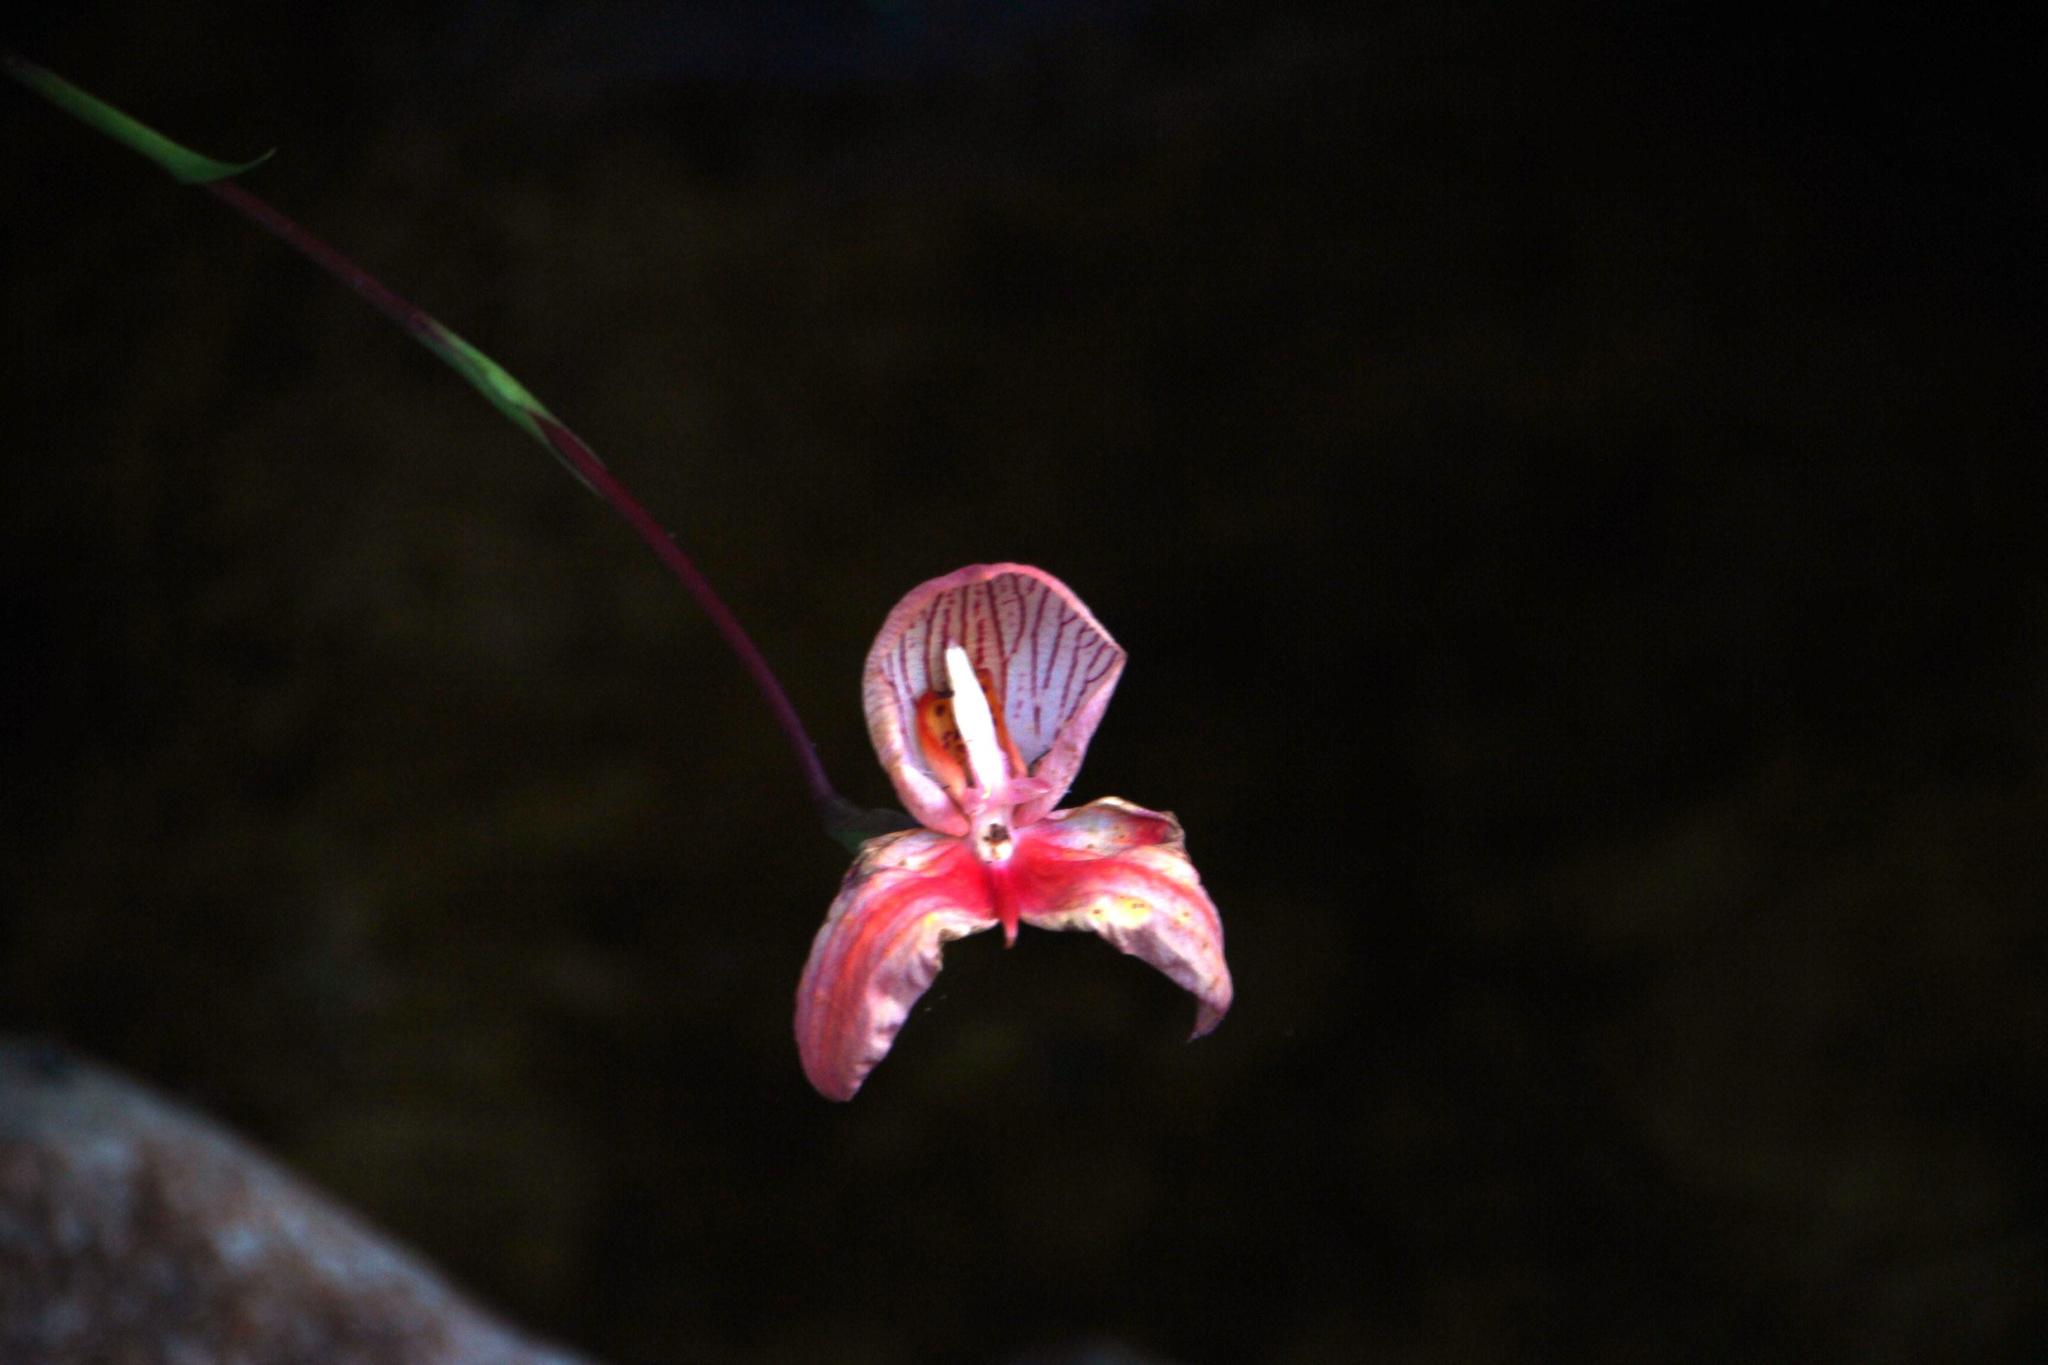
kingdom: Plantae
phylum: Tracheophyta
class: Liliopsida
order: Asparagales
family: Orchidaceae
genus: Disa
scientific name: Disa uniflora
